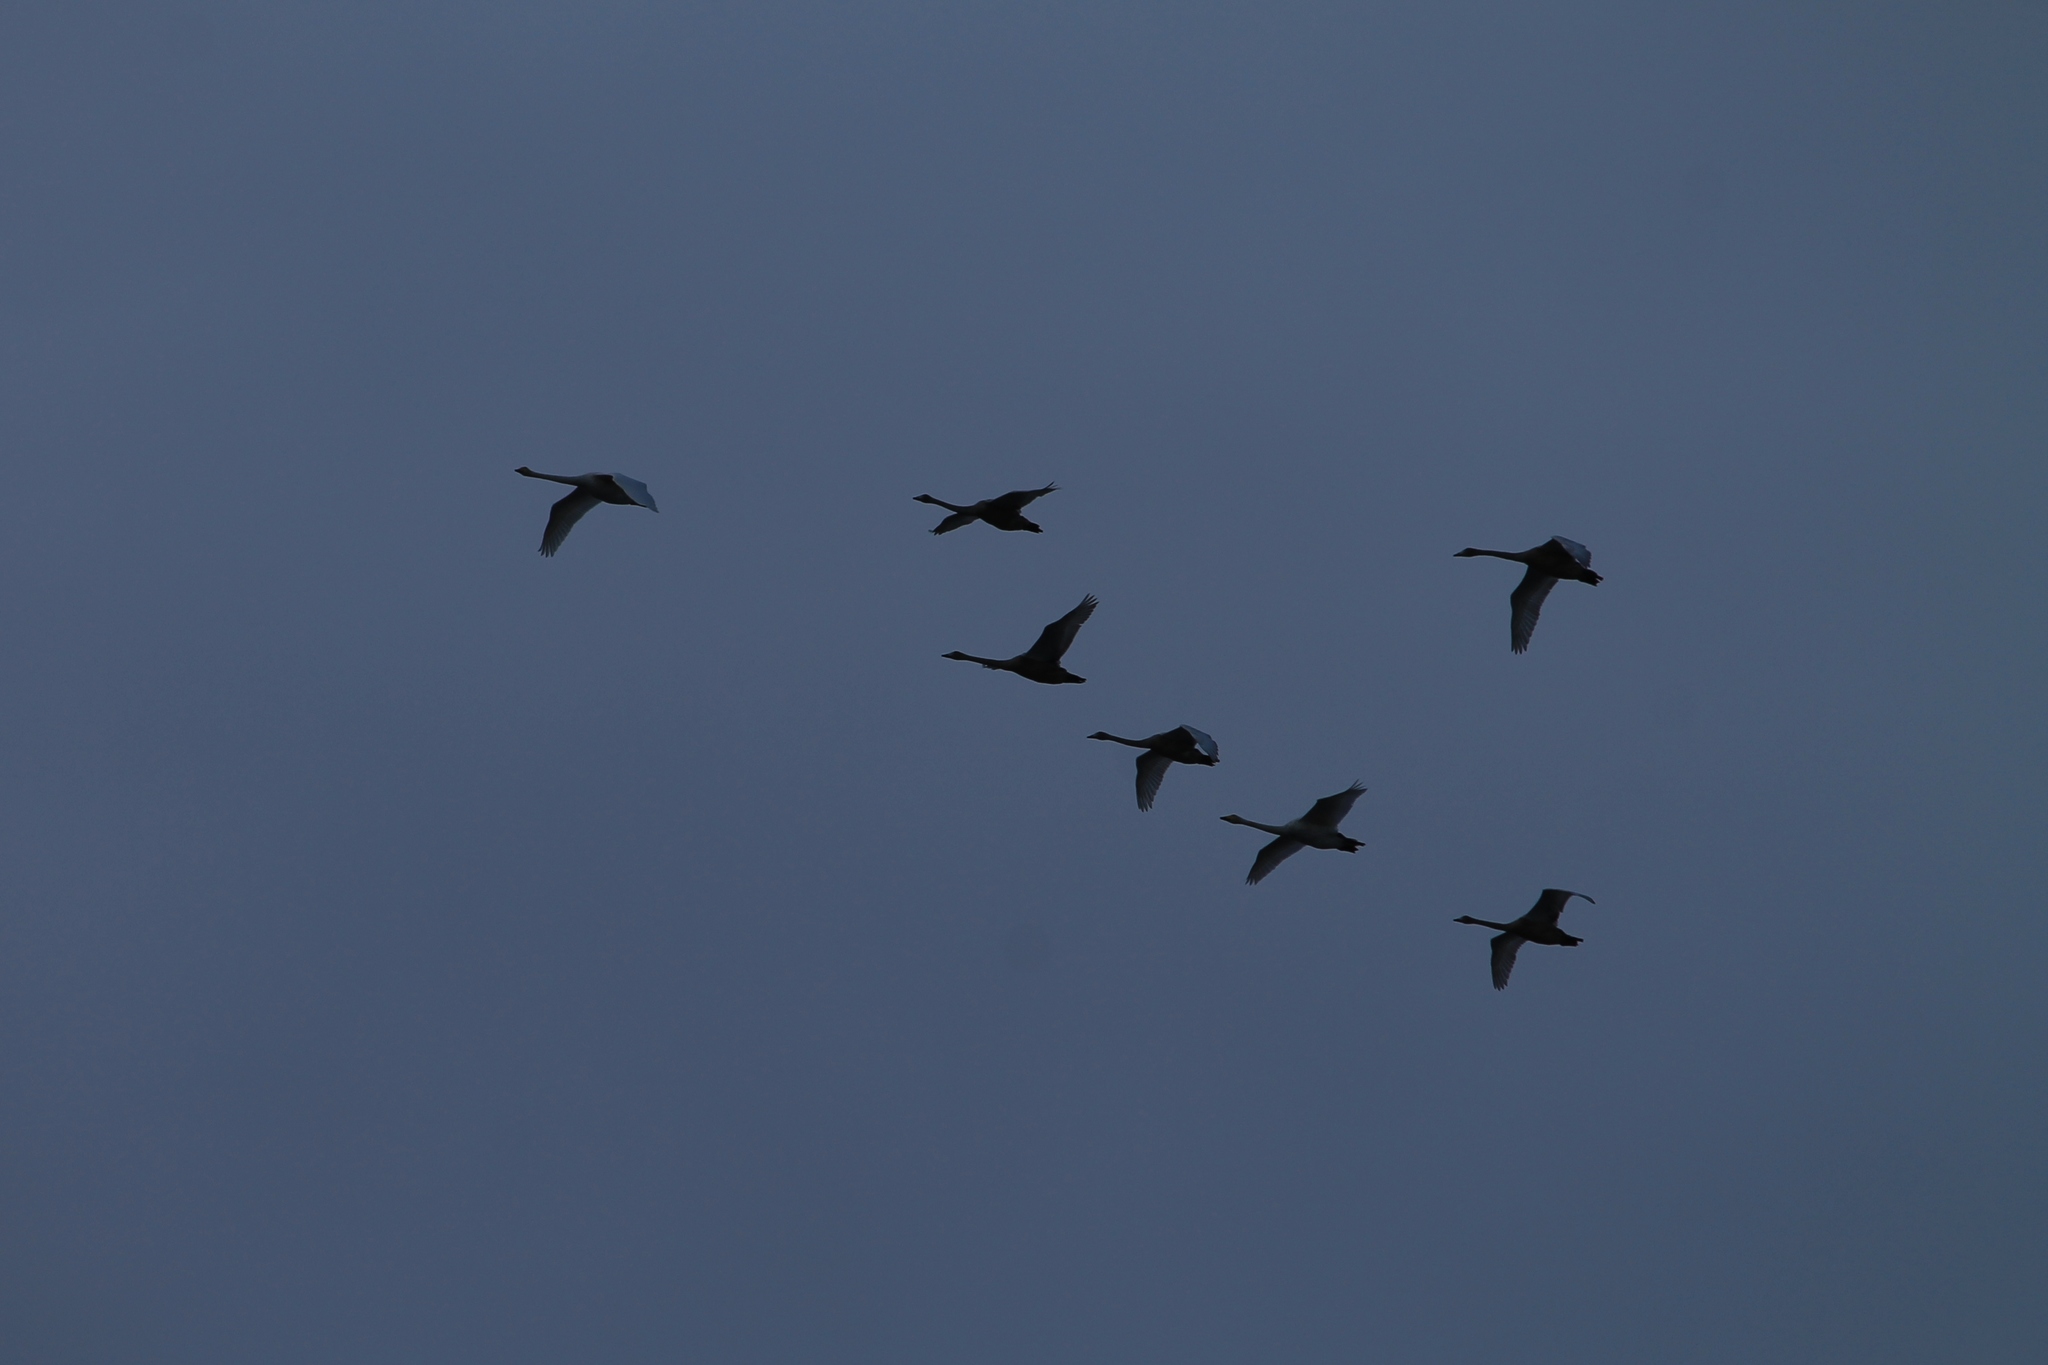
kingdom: Animalia
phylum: Chordata
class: Aves
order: Anseriformes
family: Anatidae
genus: Cygnus
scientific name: Cygnus cygnus
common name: Whooper swan
